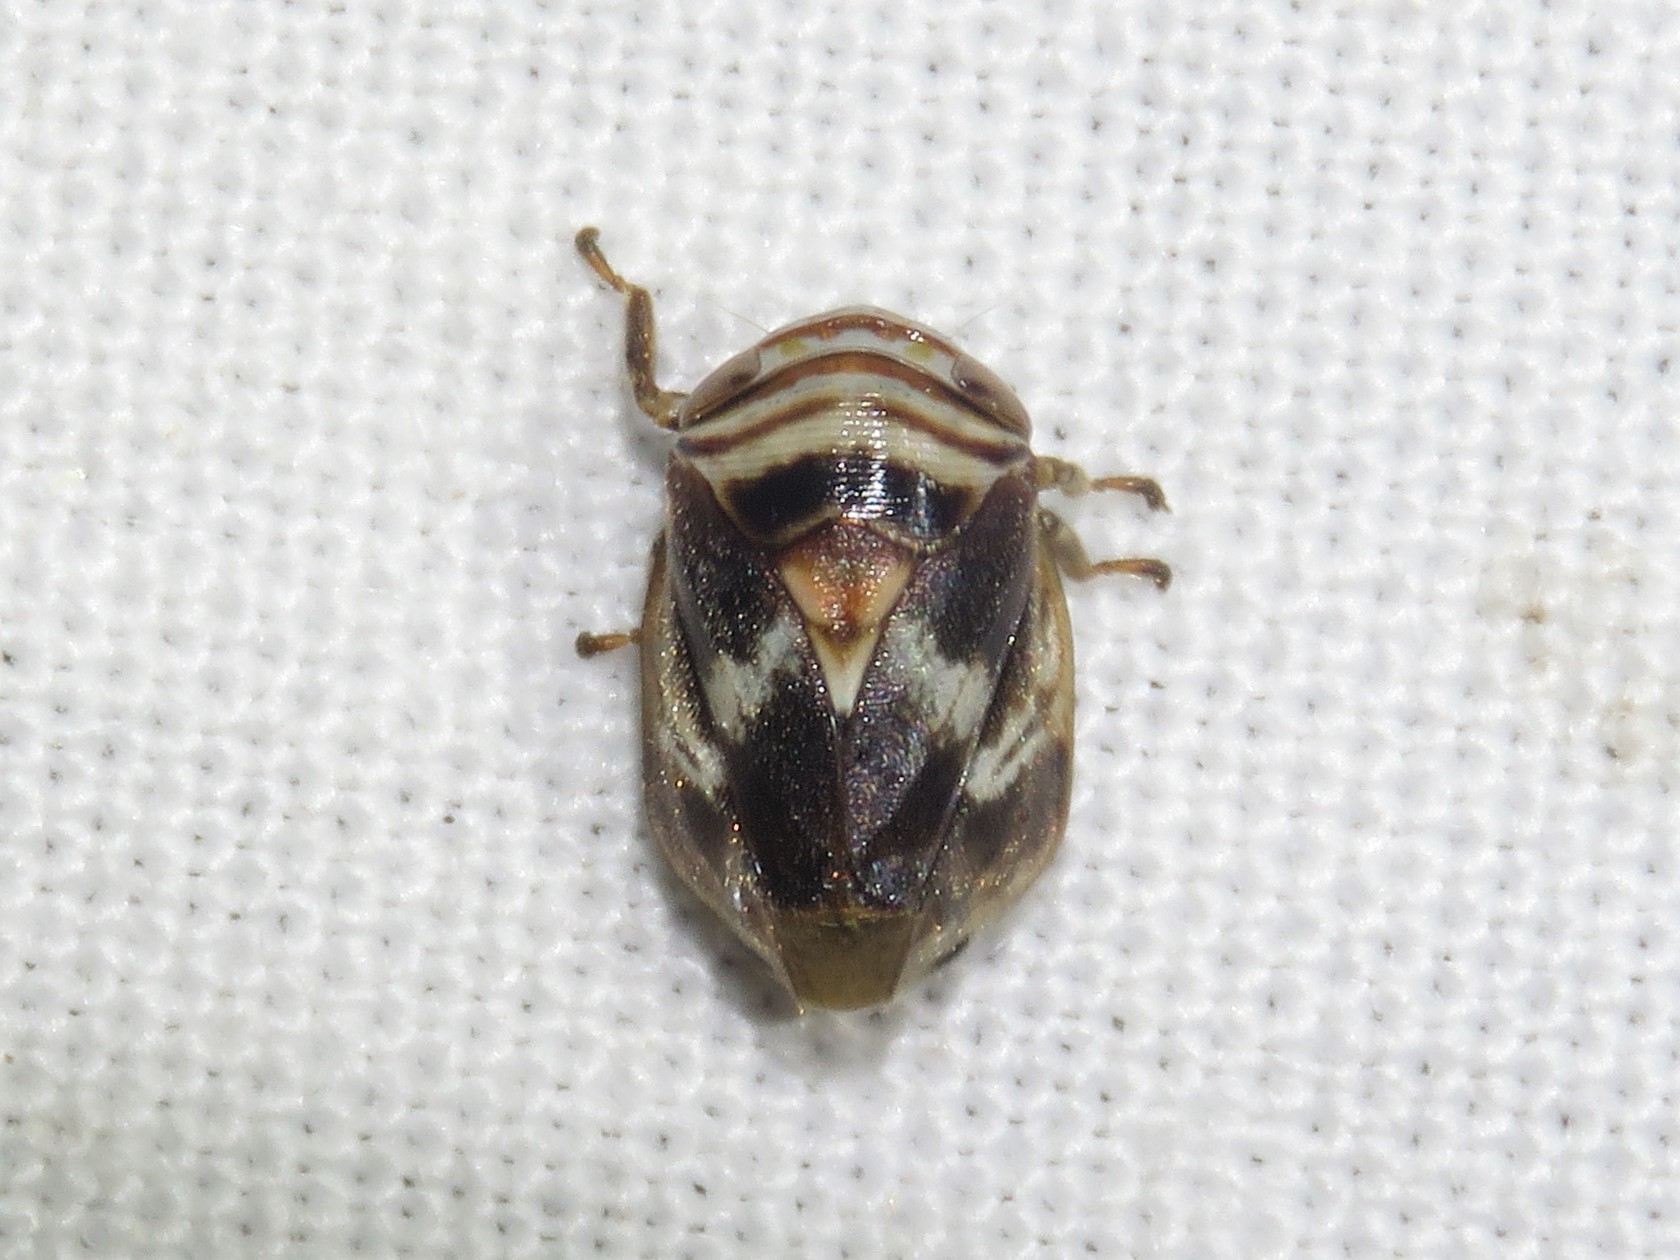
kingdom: Animalia
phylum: Arthropoda
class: Insecta
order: Hemiptera
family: Clastopteridae
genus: Clastoptera
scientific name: Clastoptera obtusa
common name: Alder spittlebug
